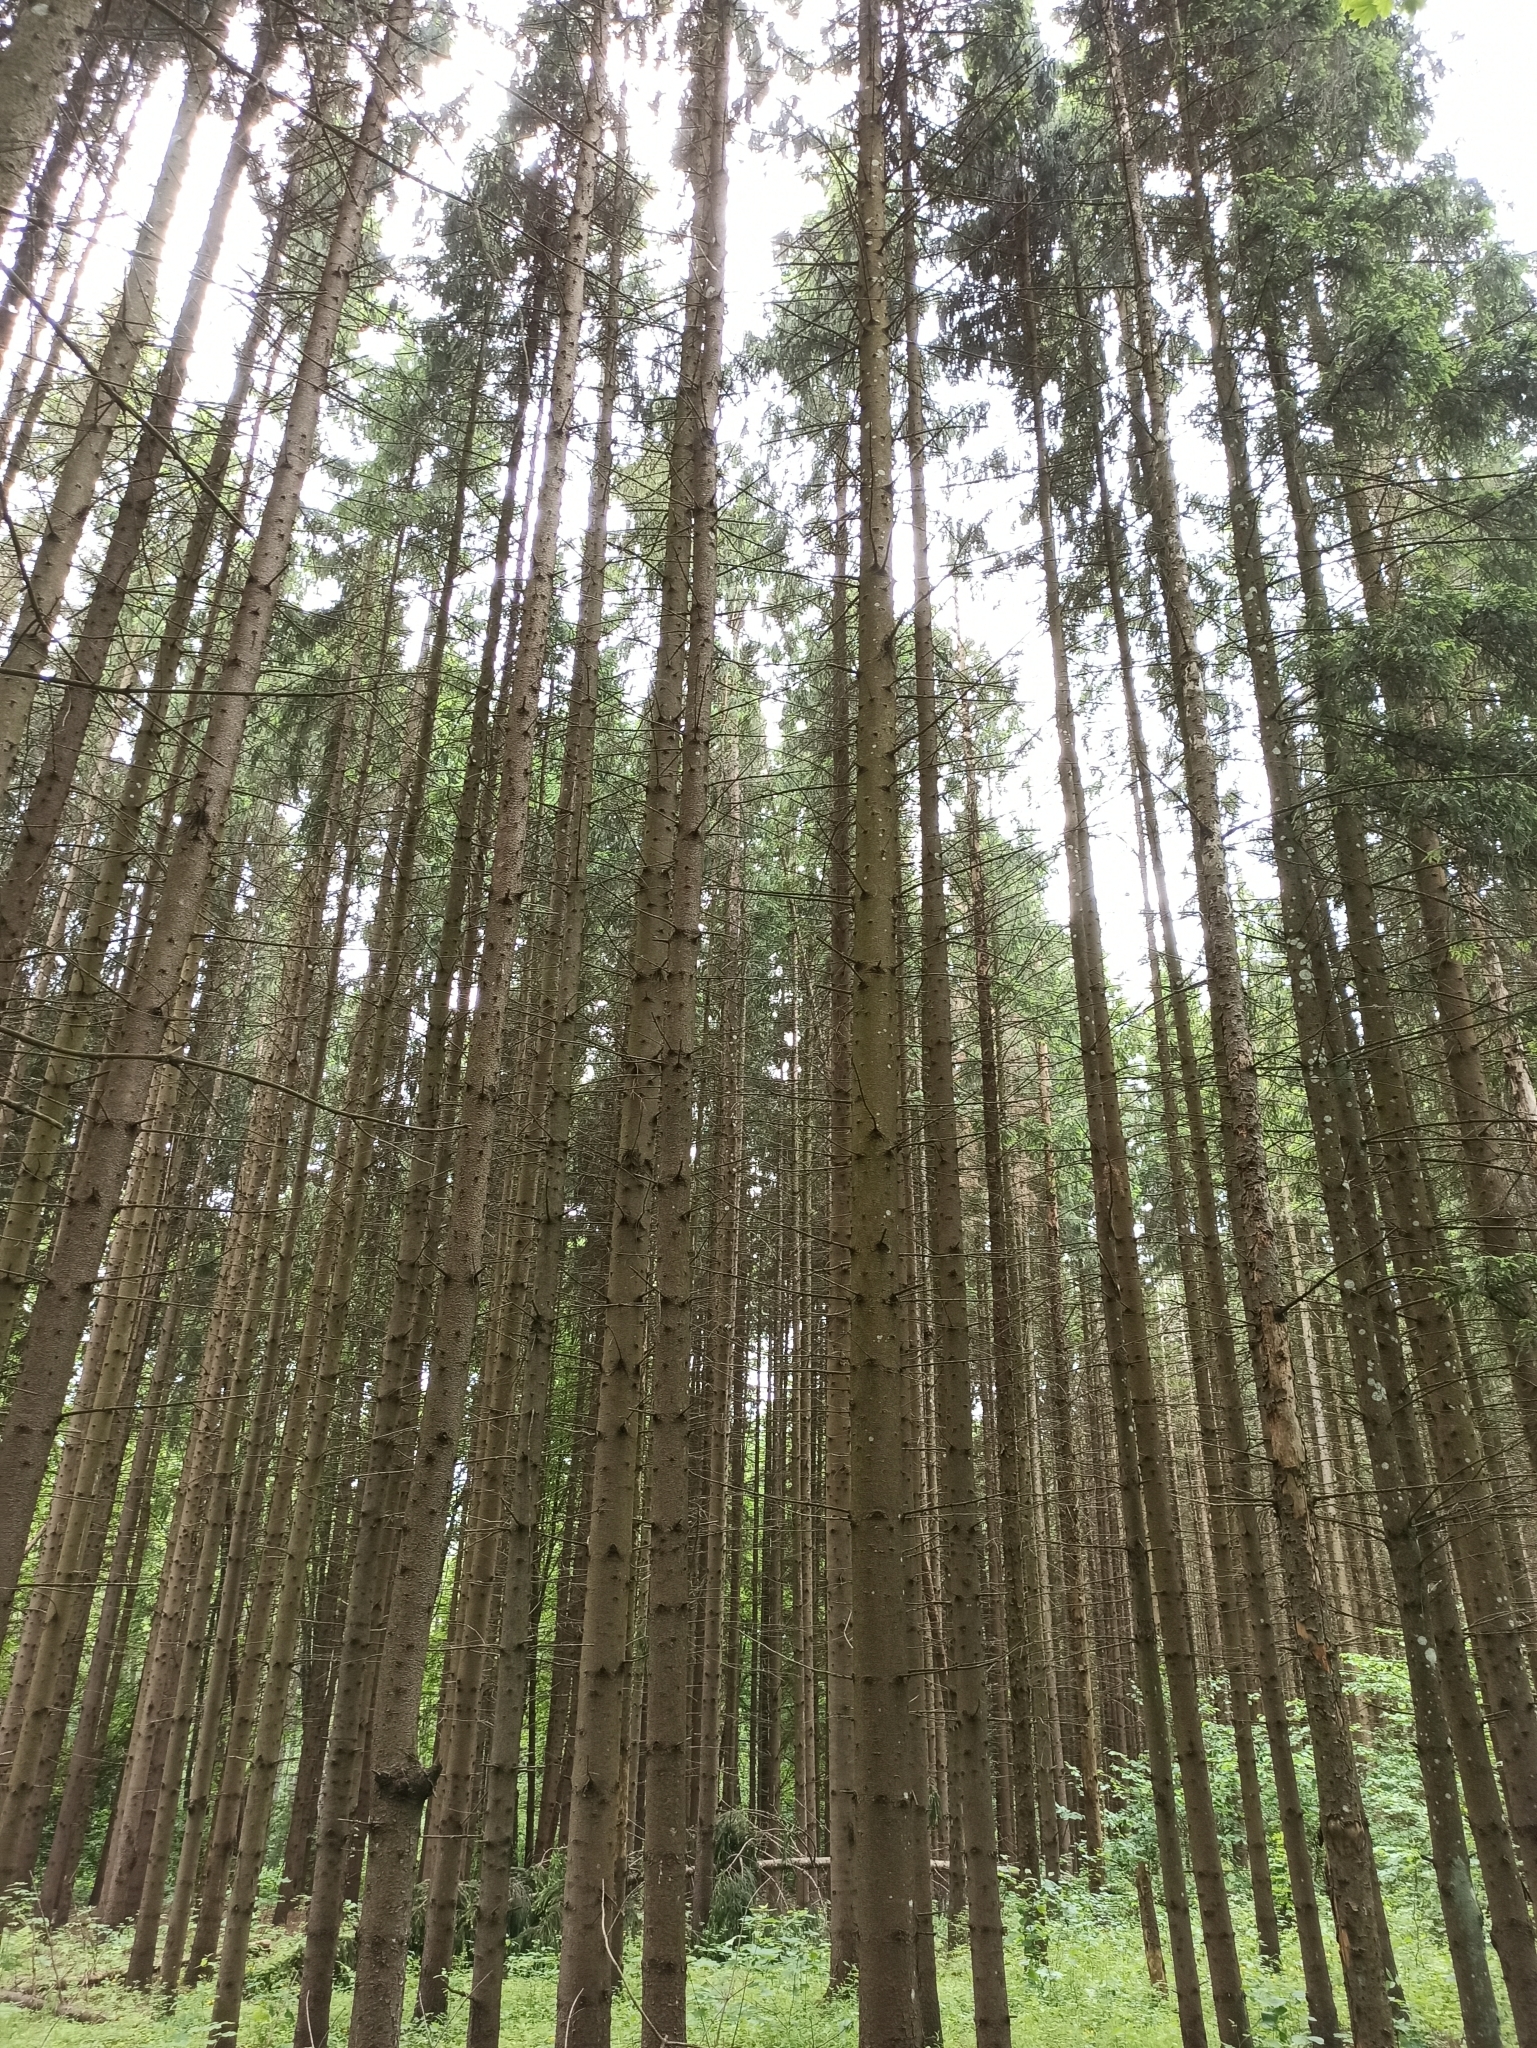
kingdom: Plantae
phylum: Tracheophyta
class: Pinopsida
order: Pinales
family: Pinaceae
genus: Picea
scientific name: Picea abies
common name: Norway spruce
